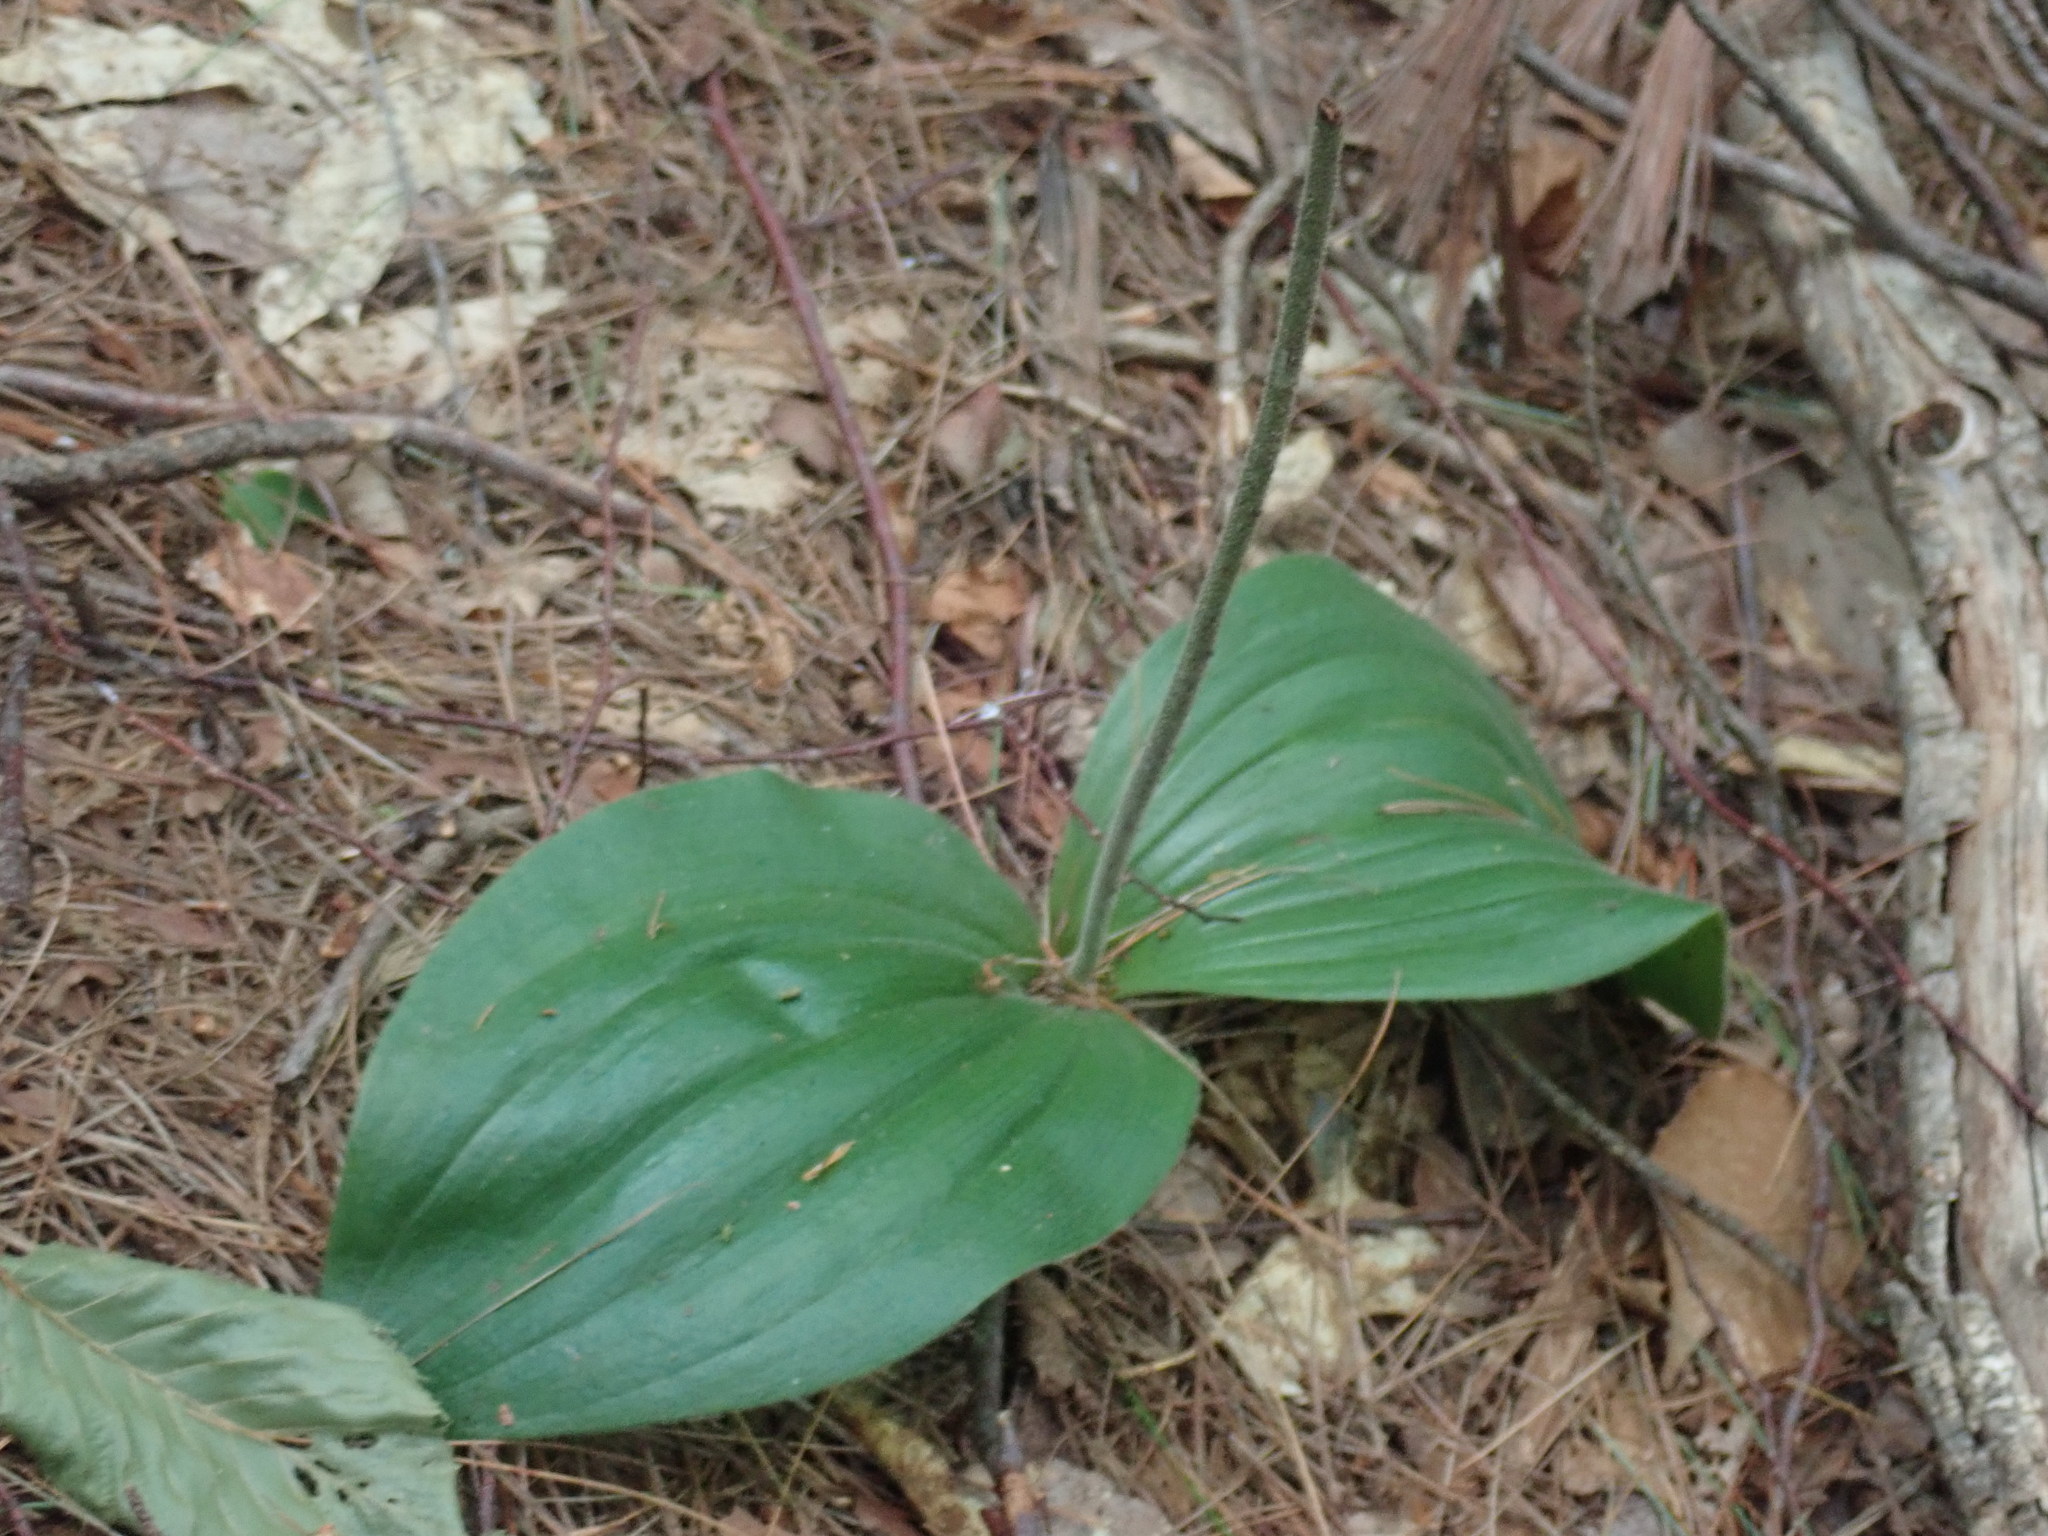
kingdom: Plantae
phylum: Tracheophyta
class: Liliopsida
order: Asparagales
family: Orchidaceae
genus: Cypripedium
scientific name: Cypripedium acaule
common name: Pink lady's-slipper
